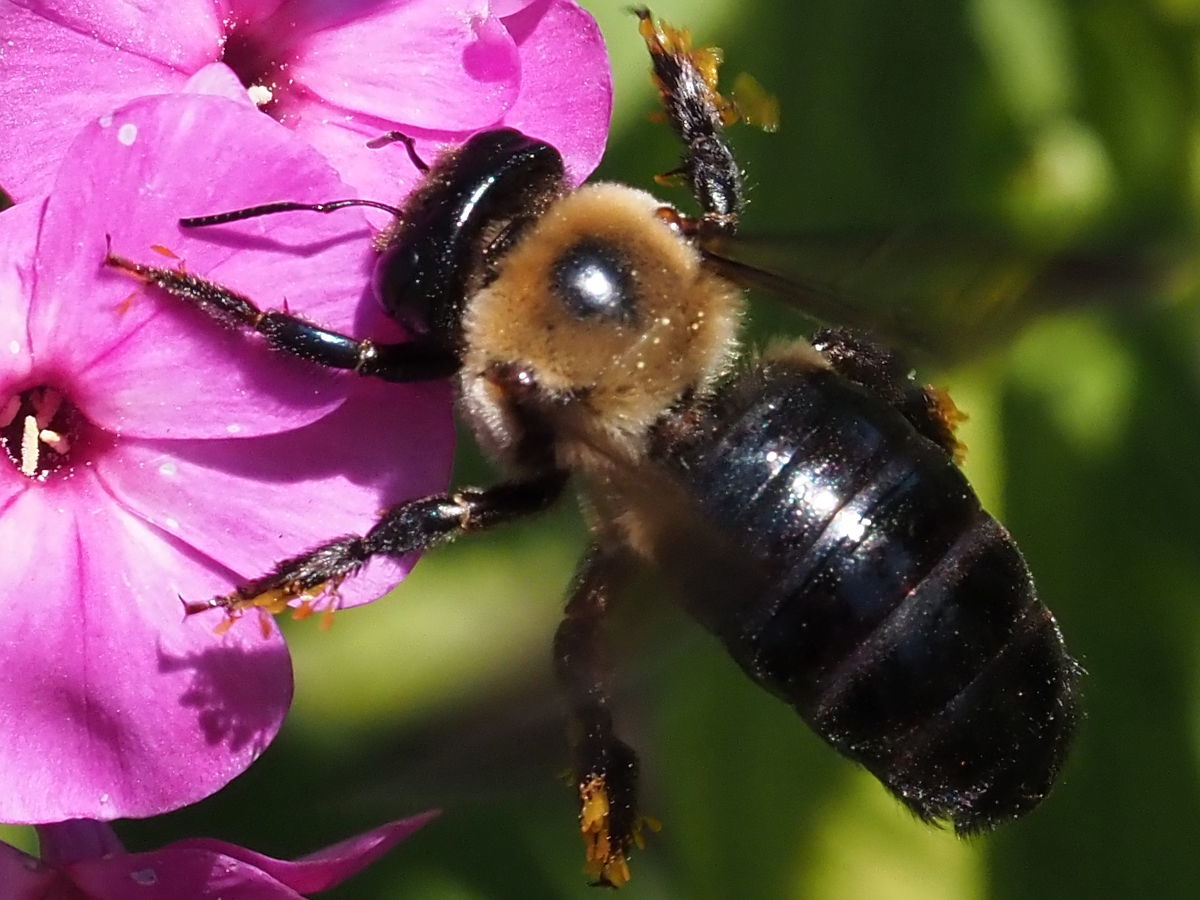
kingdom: Animalia
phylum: Arthropoda
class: Insecta
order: Hymenoptera
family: Apidae
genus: Xylocopa
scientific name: Xylocopa virginica
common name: Carpenter bee
